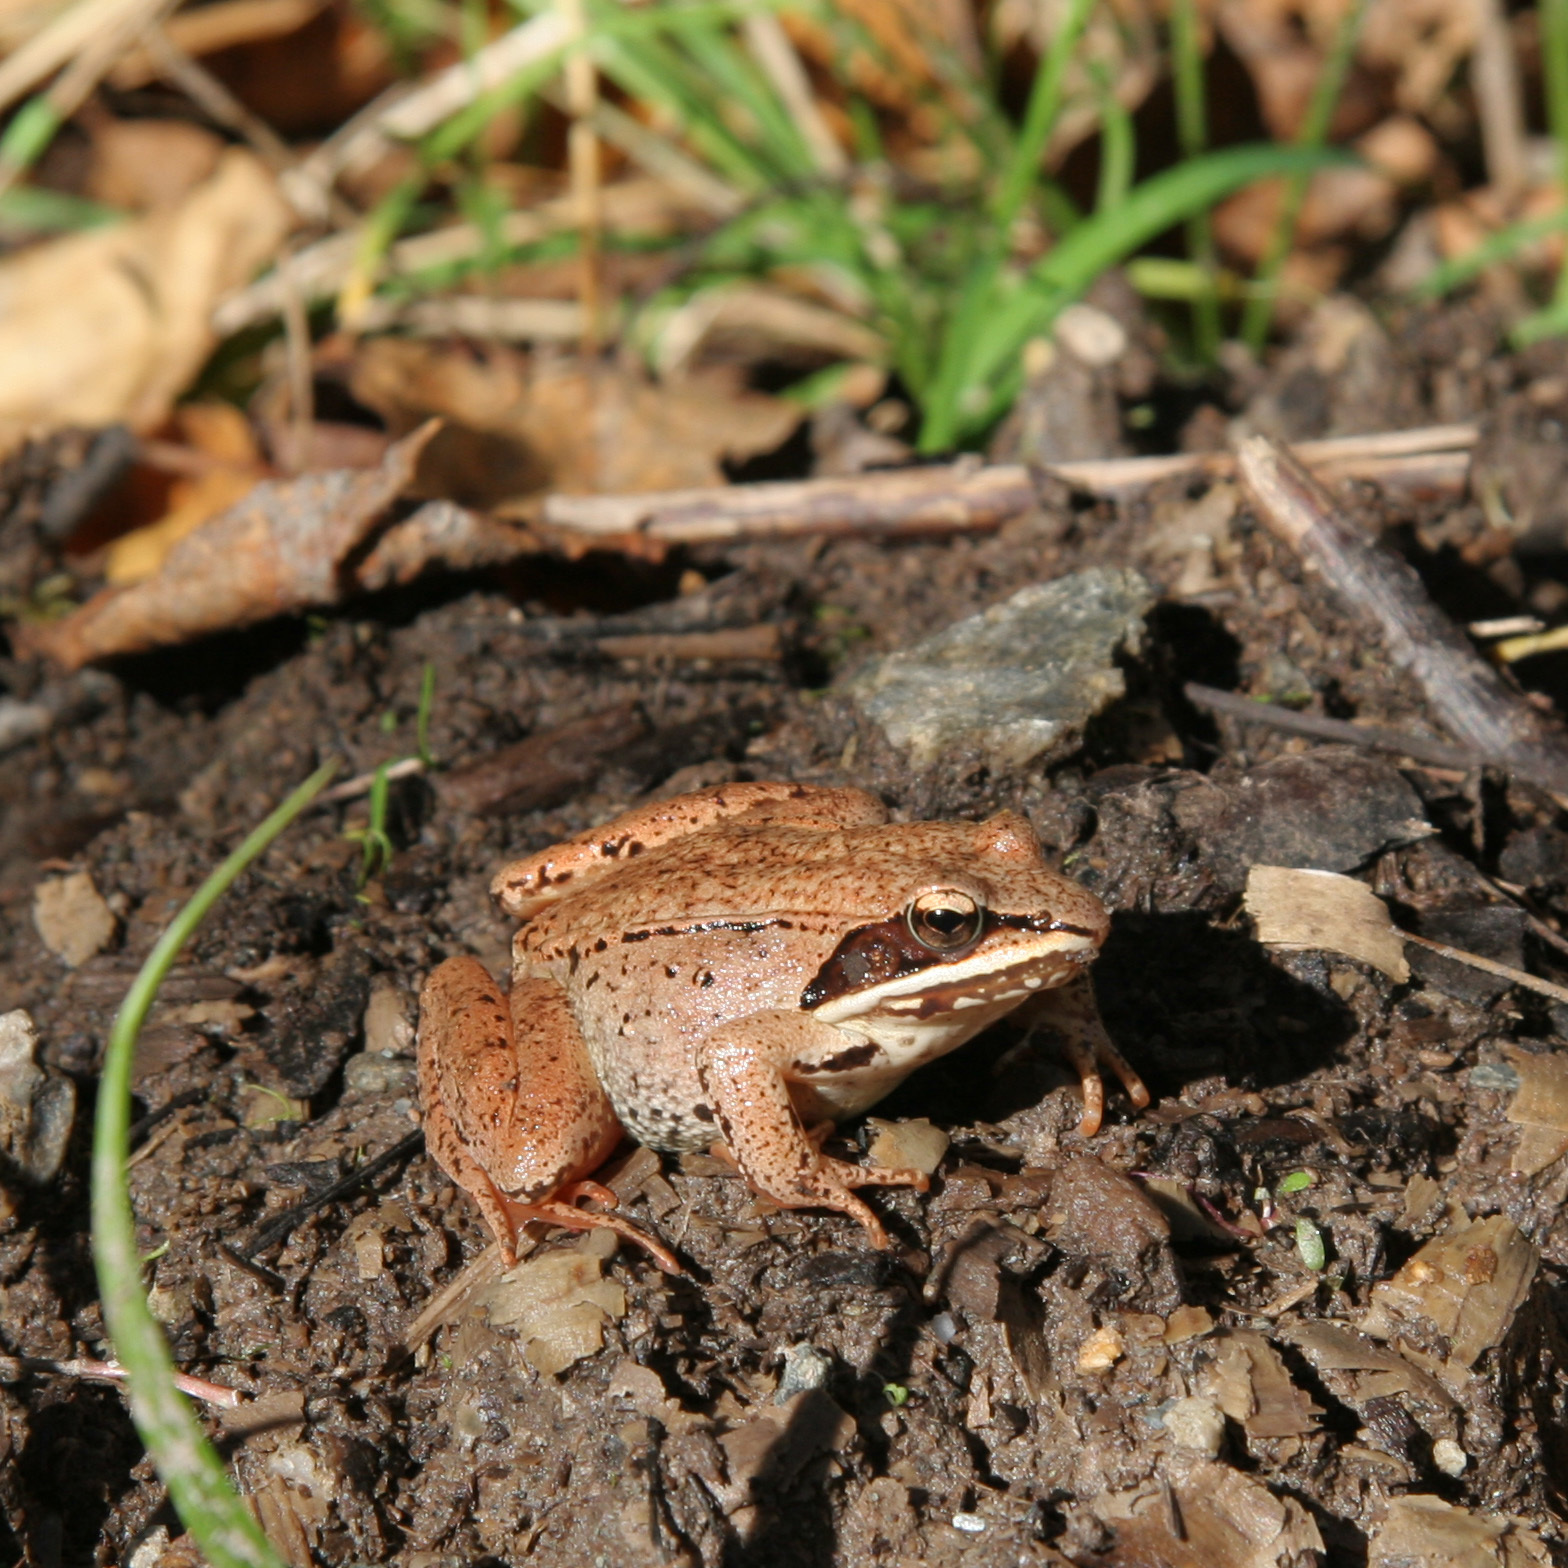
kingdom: Animalia
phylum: Chordata
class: Amphibia
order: Anura
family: Ranidae
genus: Lithobates
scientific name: Lithobates sylvaticus
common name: Wood frog
